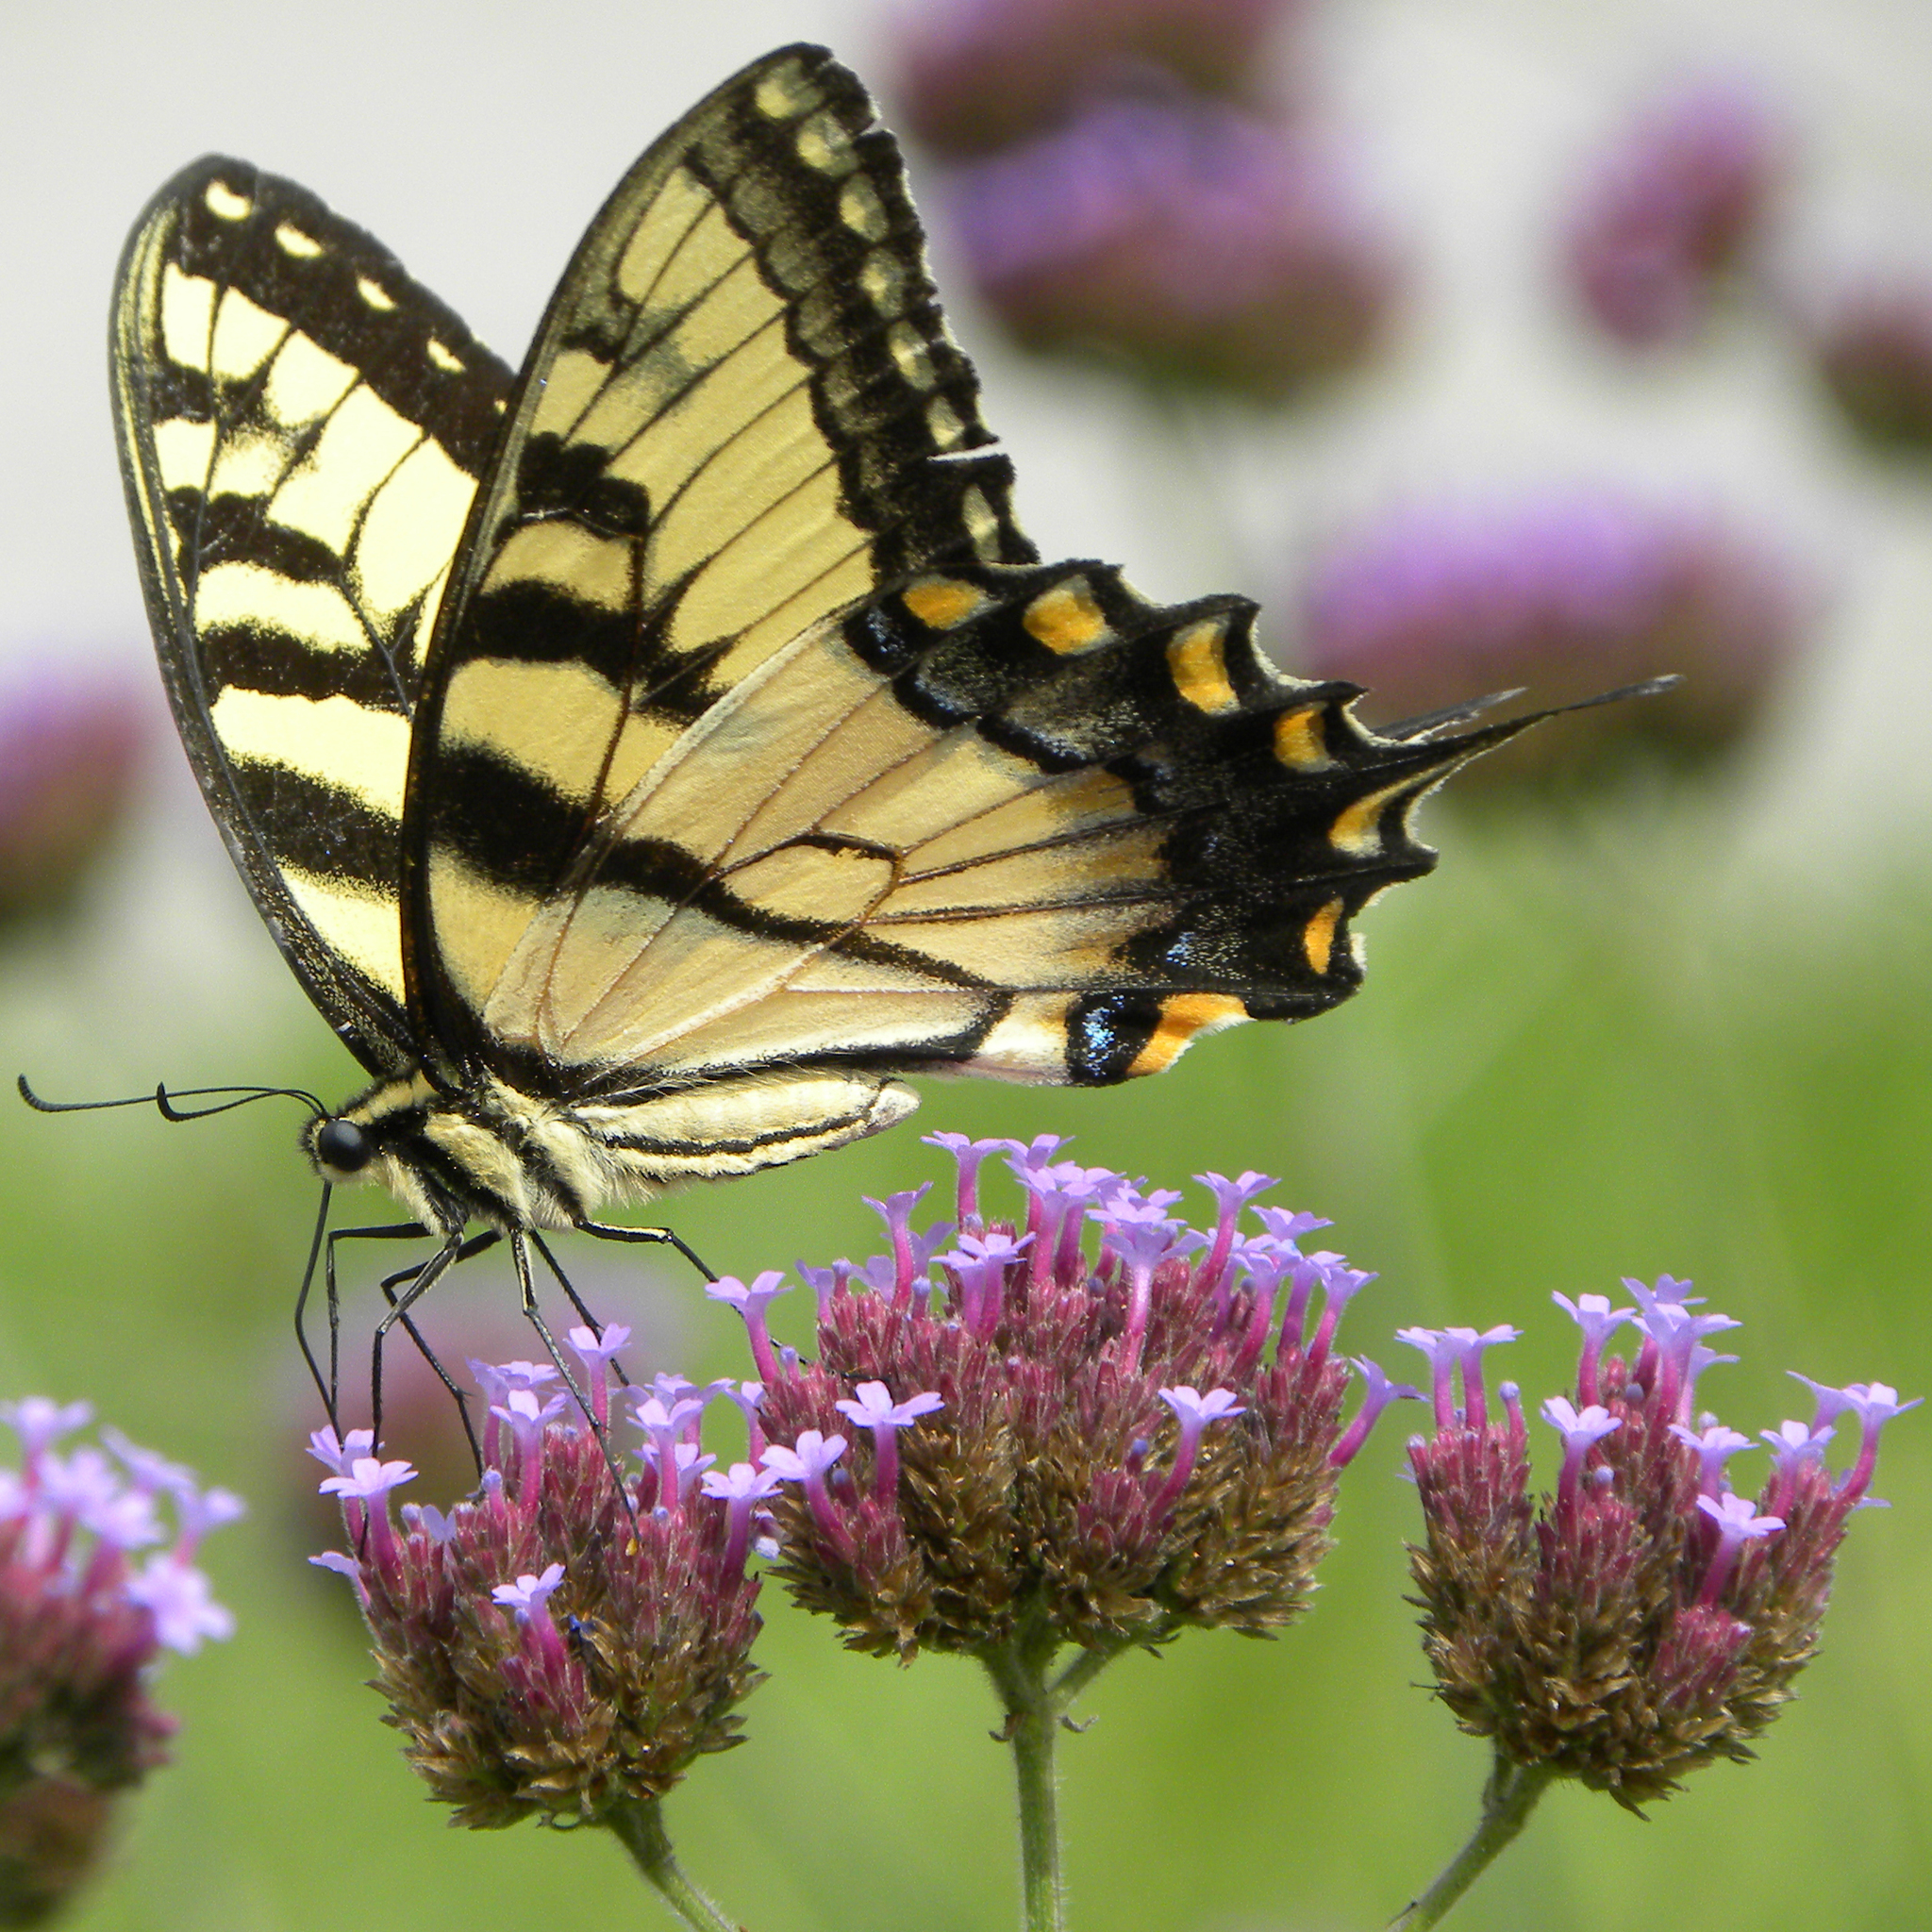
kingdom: Animalia
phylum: Arthropoda
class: Insecta
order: Lepidoptera
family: Papilionidae
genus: Papilio
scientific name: Papilio glaucus
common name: Tiger swallowtail
